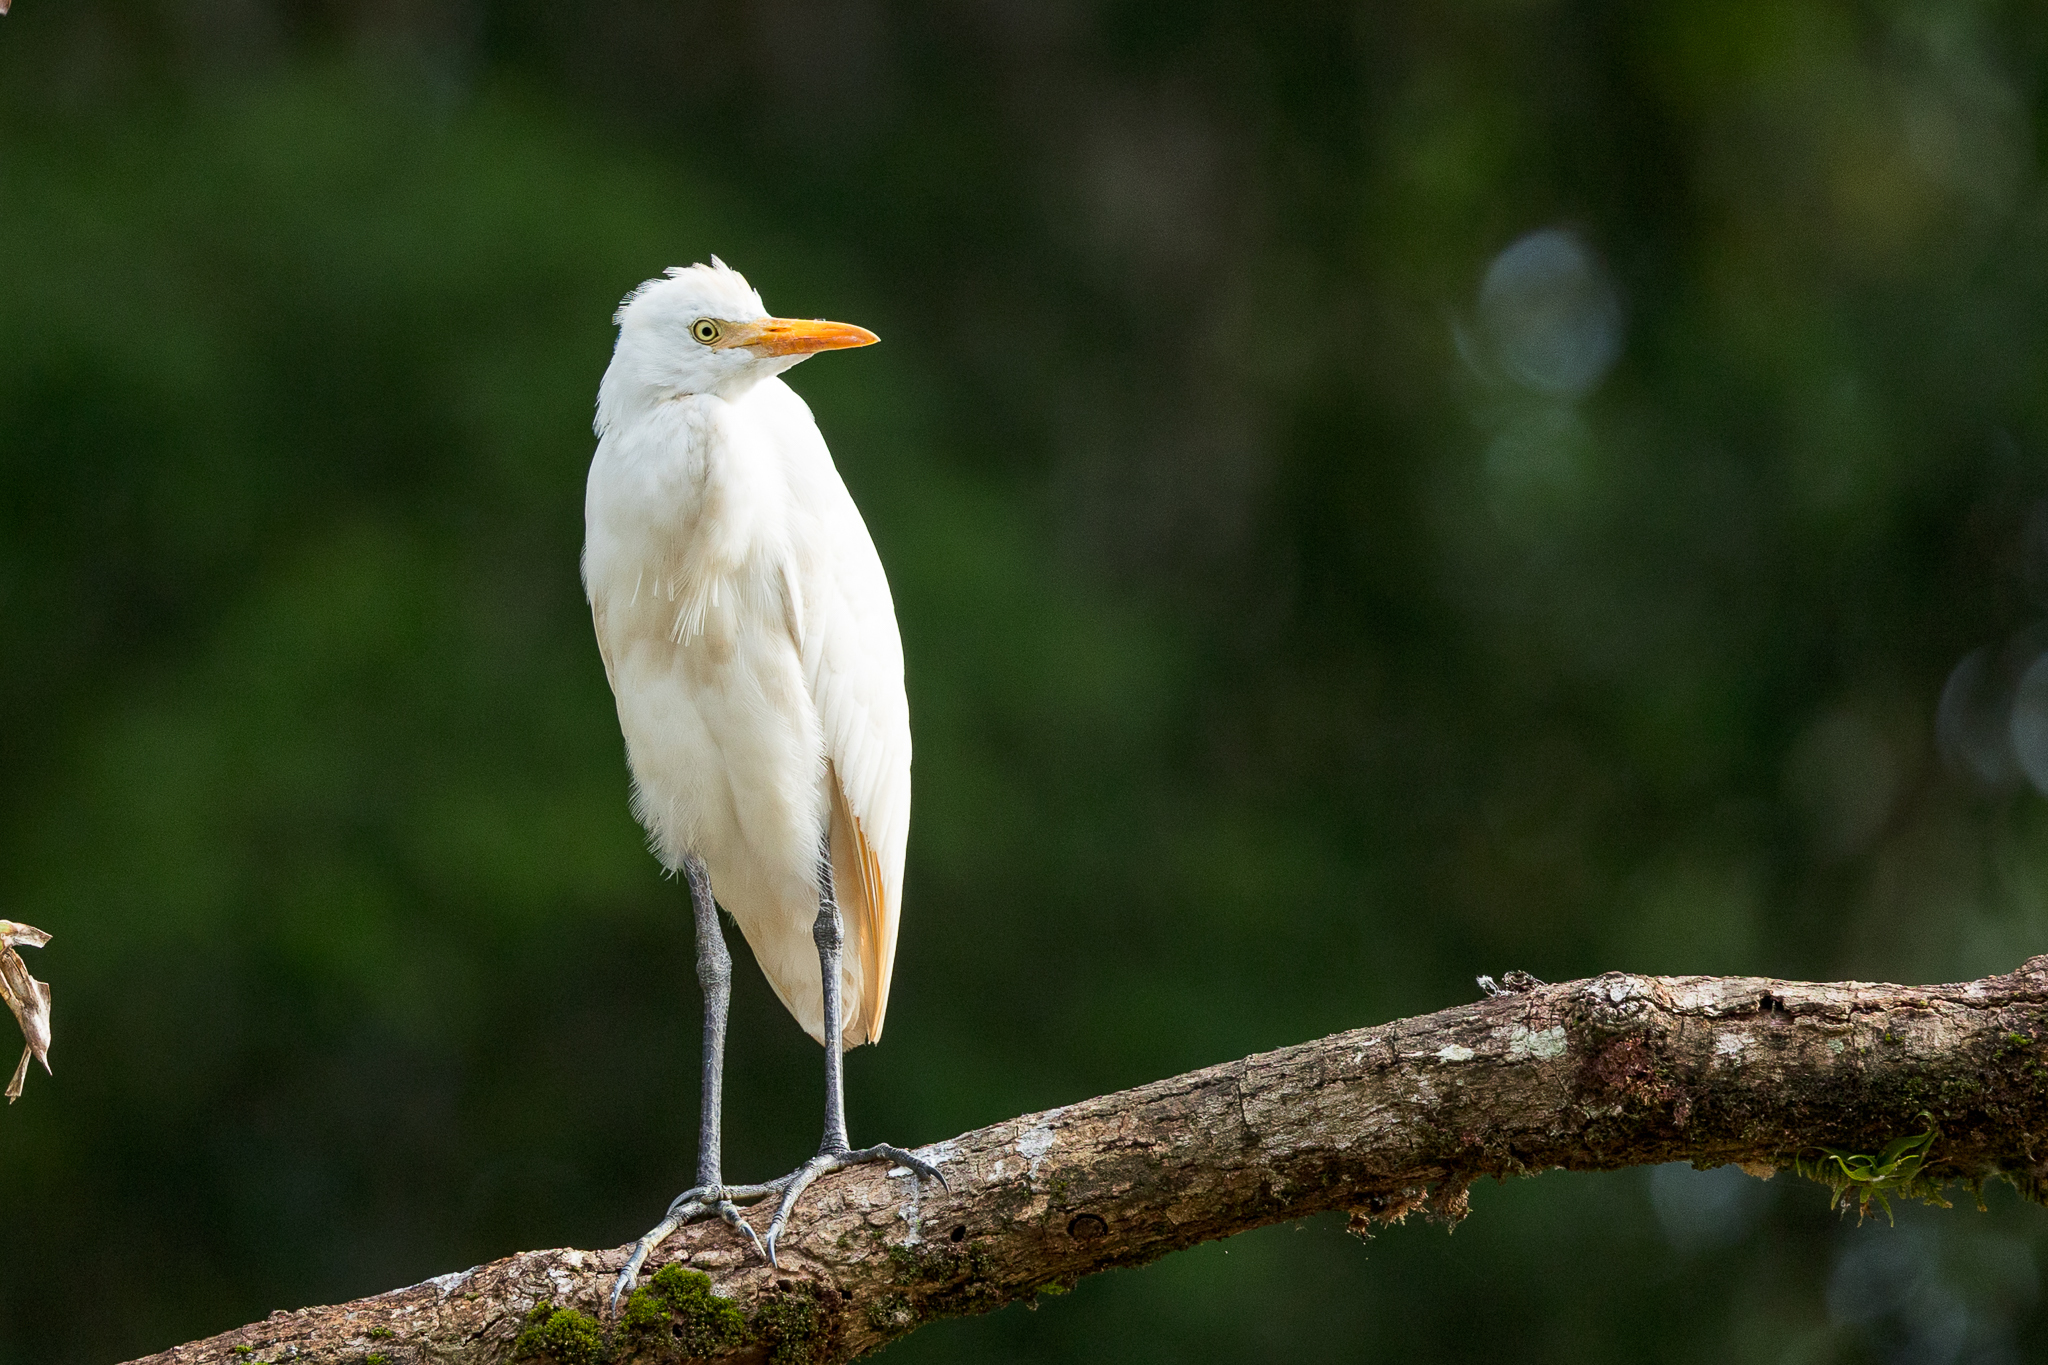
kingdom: Animalia
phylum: Chordata
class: Aves
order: Pelecaniformes
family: Ardeidae
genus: Bubulcus
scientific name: Bubulcus ibis
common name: Cattle egret
